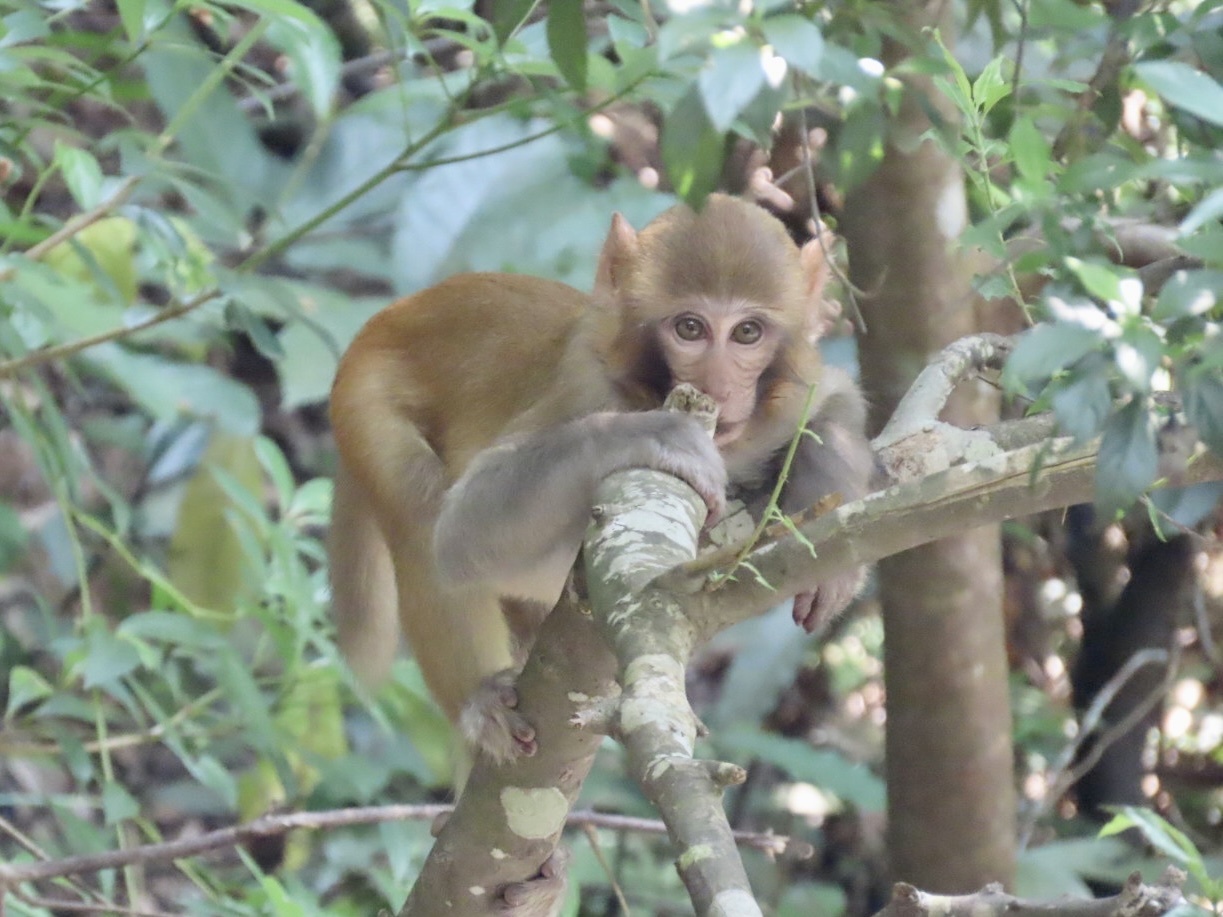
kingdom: Animalia
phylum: Chordata
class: Mammalia
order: Primates
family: Cercopithecidae
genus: Macaca
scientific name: Macaca mulatta
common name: Rhesus monkey
